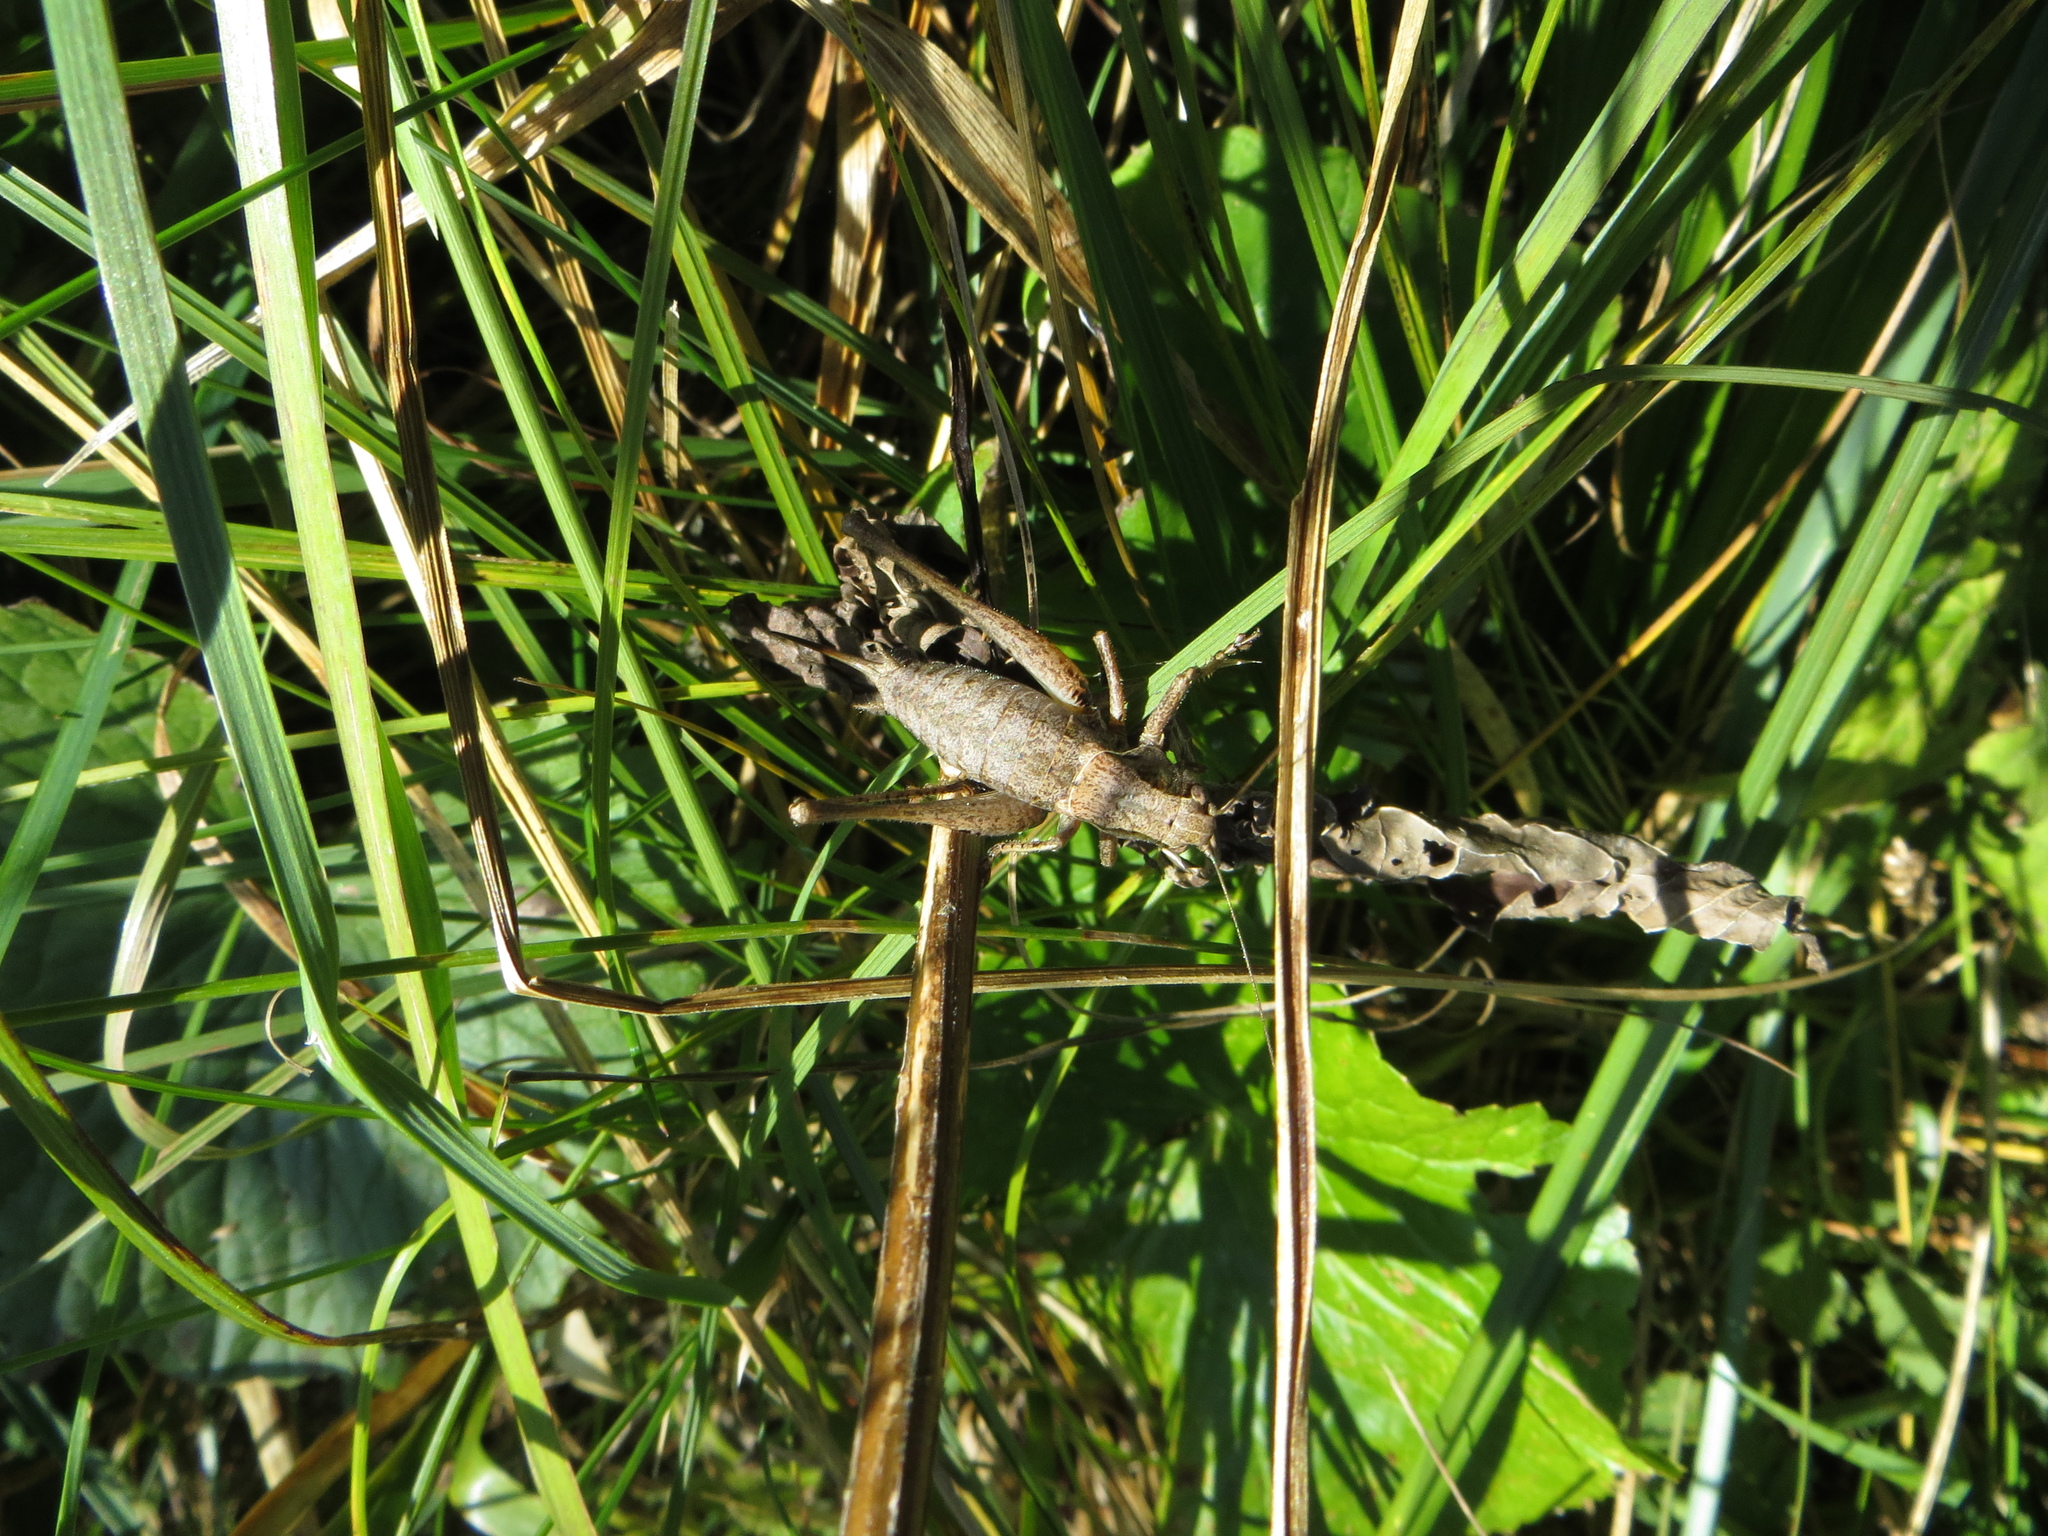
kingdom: Animalia
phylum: Arthropoda
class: Insecta
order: Orthoptera
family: Tettigoniidae
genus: Pholidoptera
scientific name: Pholidoptera griseoaptera
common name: Dark bush-cricket
